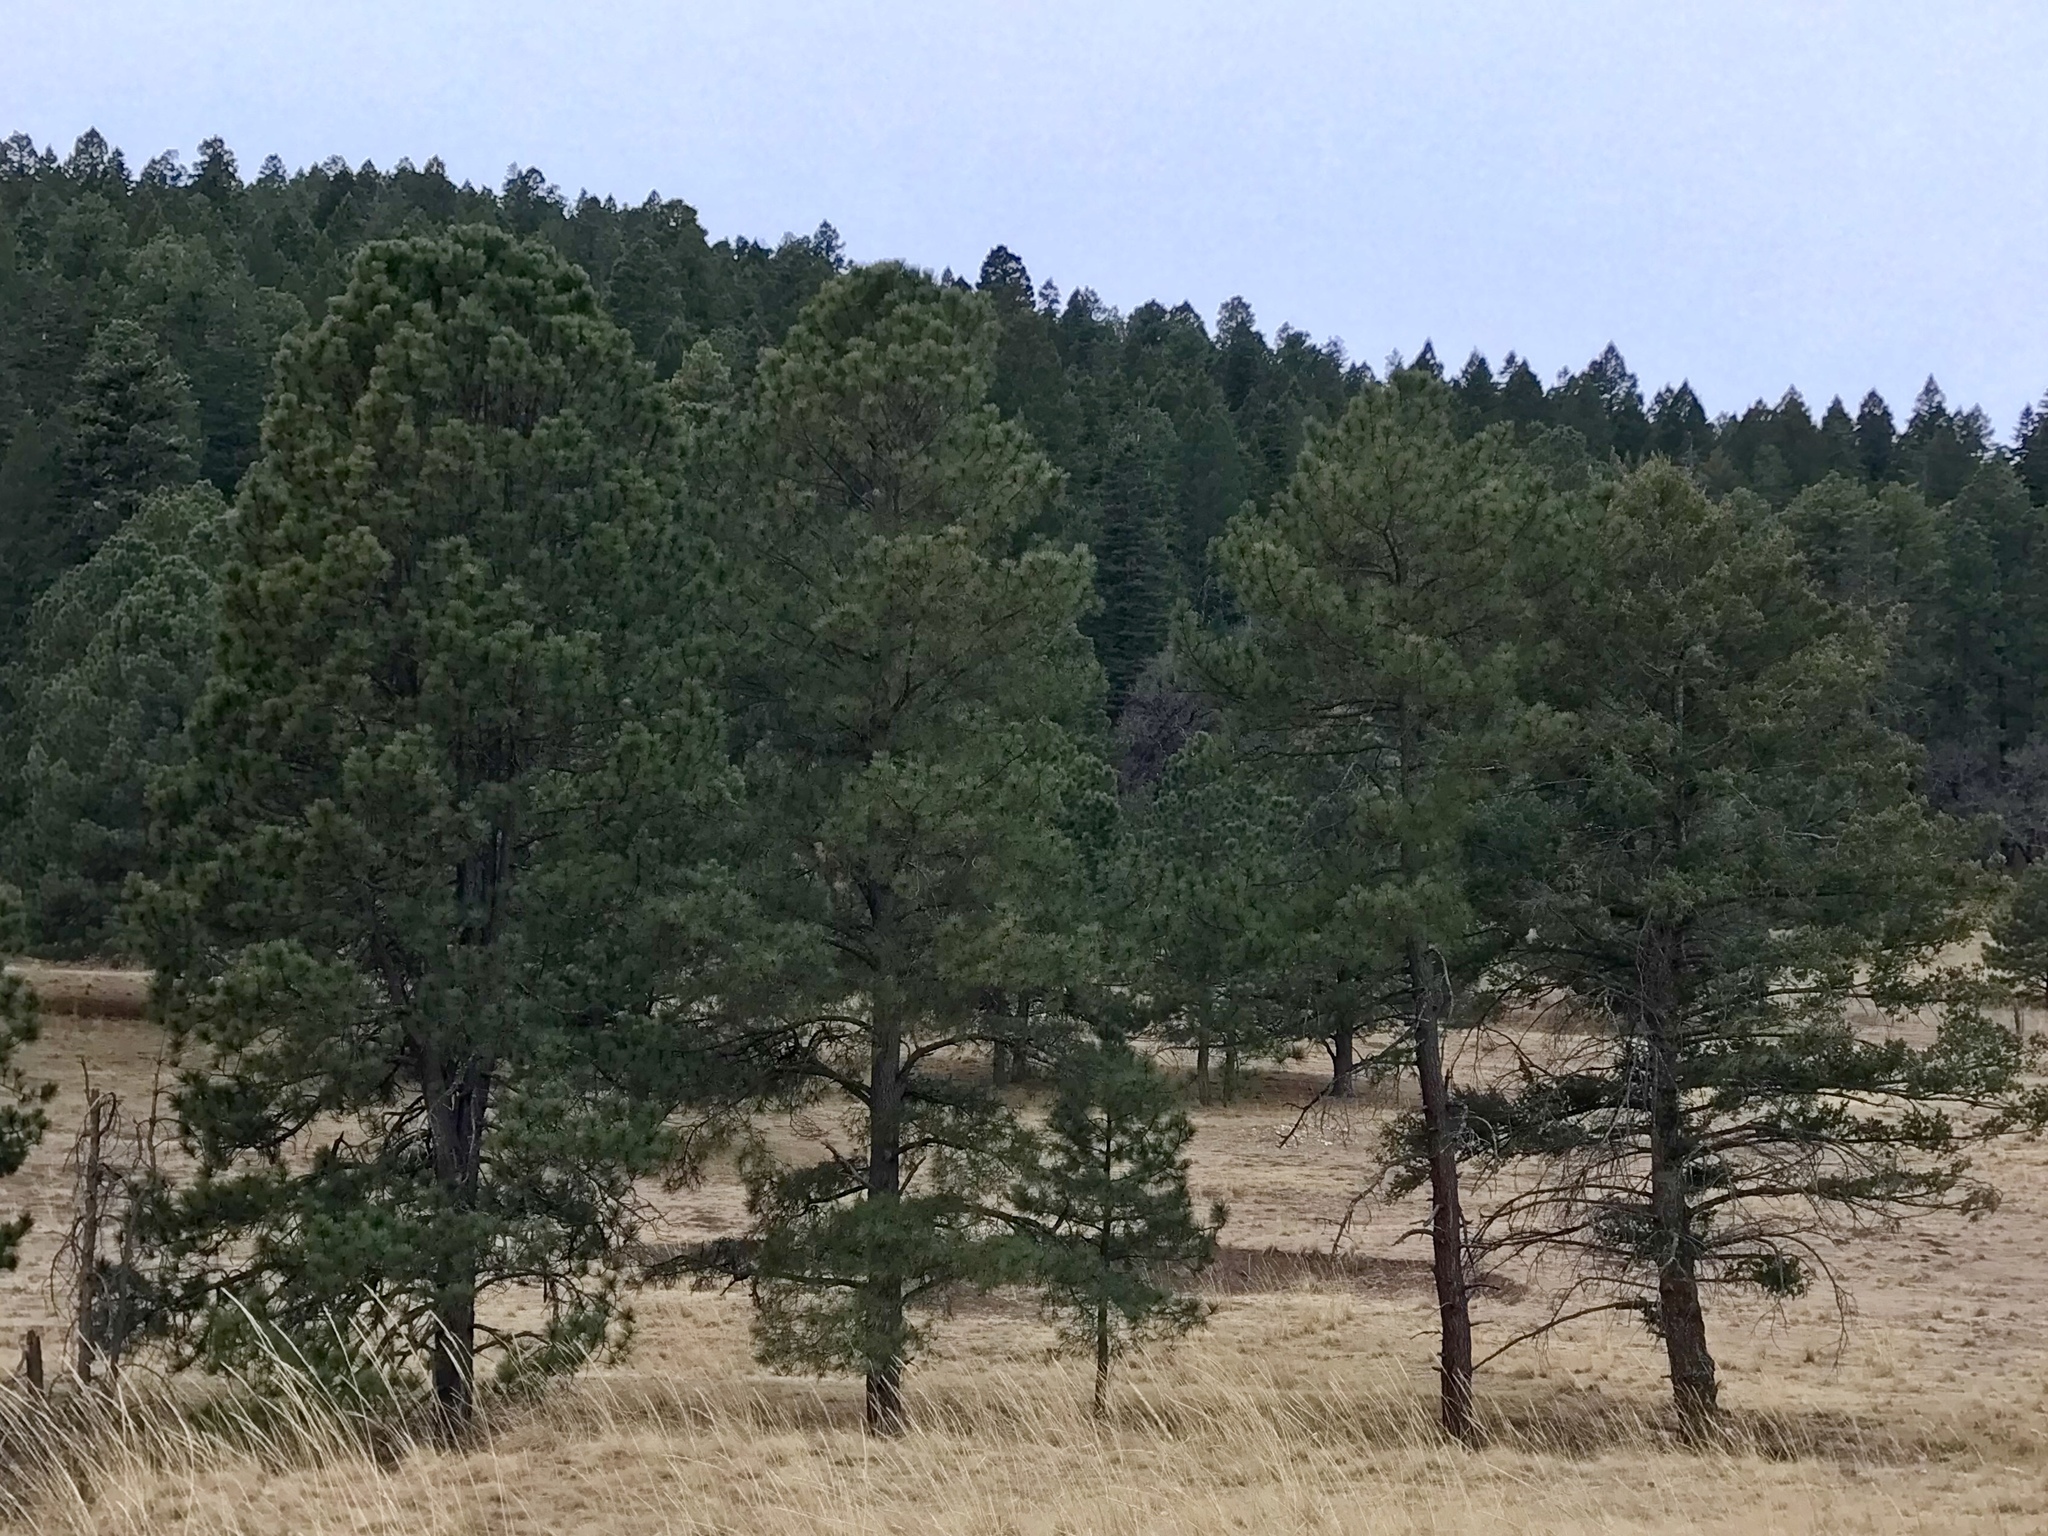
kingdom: Plantae
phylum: Tracheophyta
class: Pinopsida
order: Pinales
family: Pinaceae
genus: Pinus
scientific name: Pinus ponderosa
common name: Western yellow-pine
